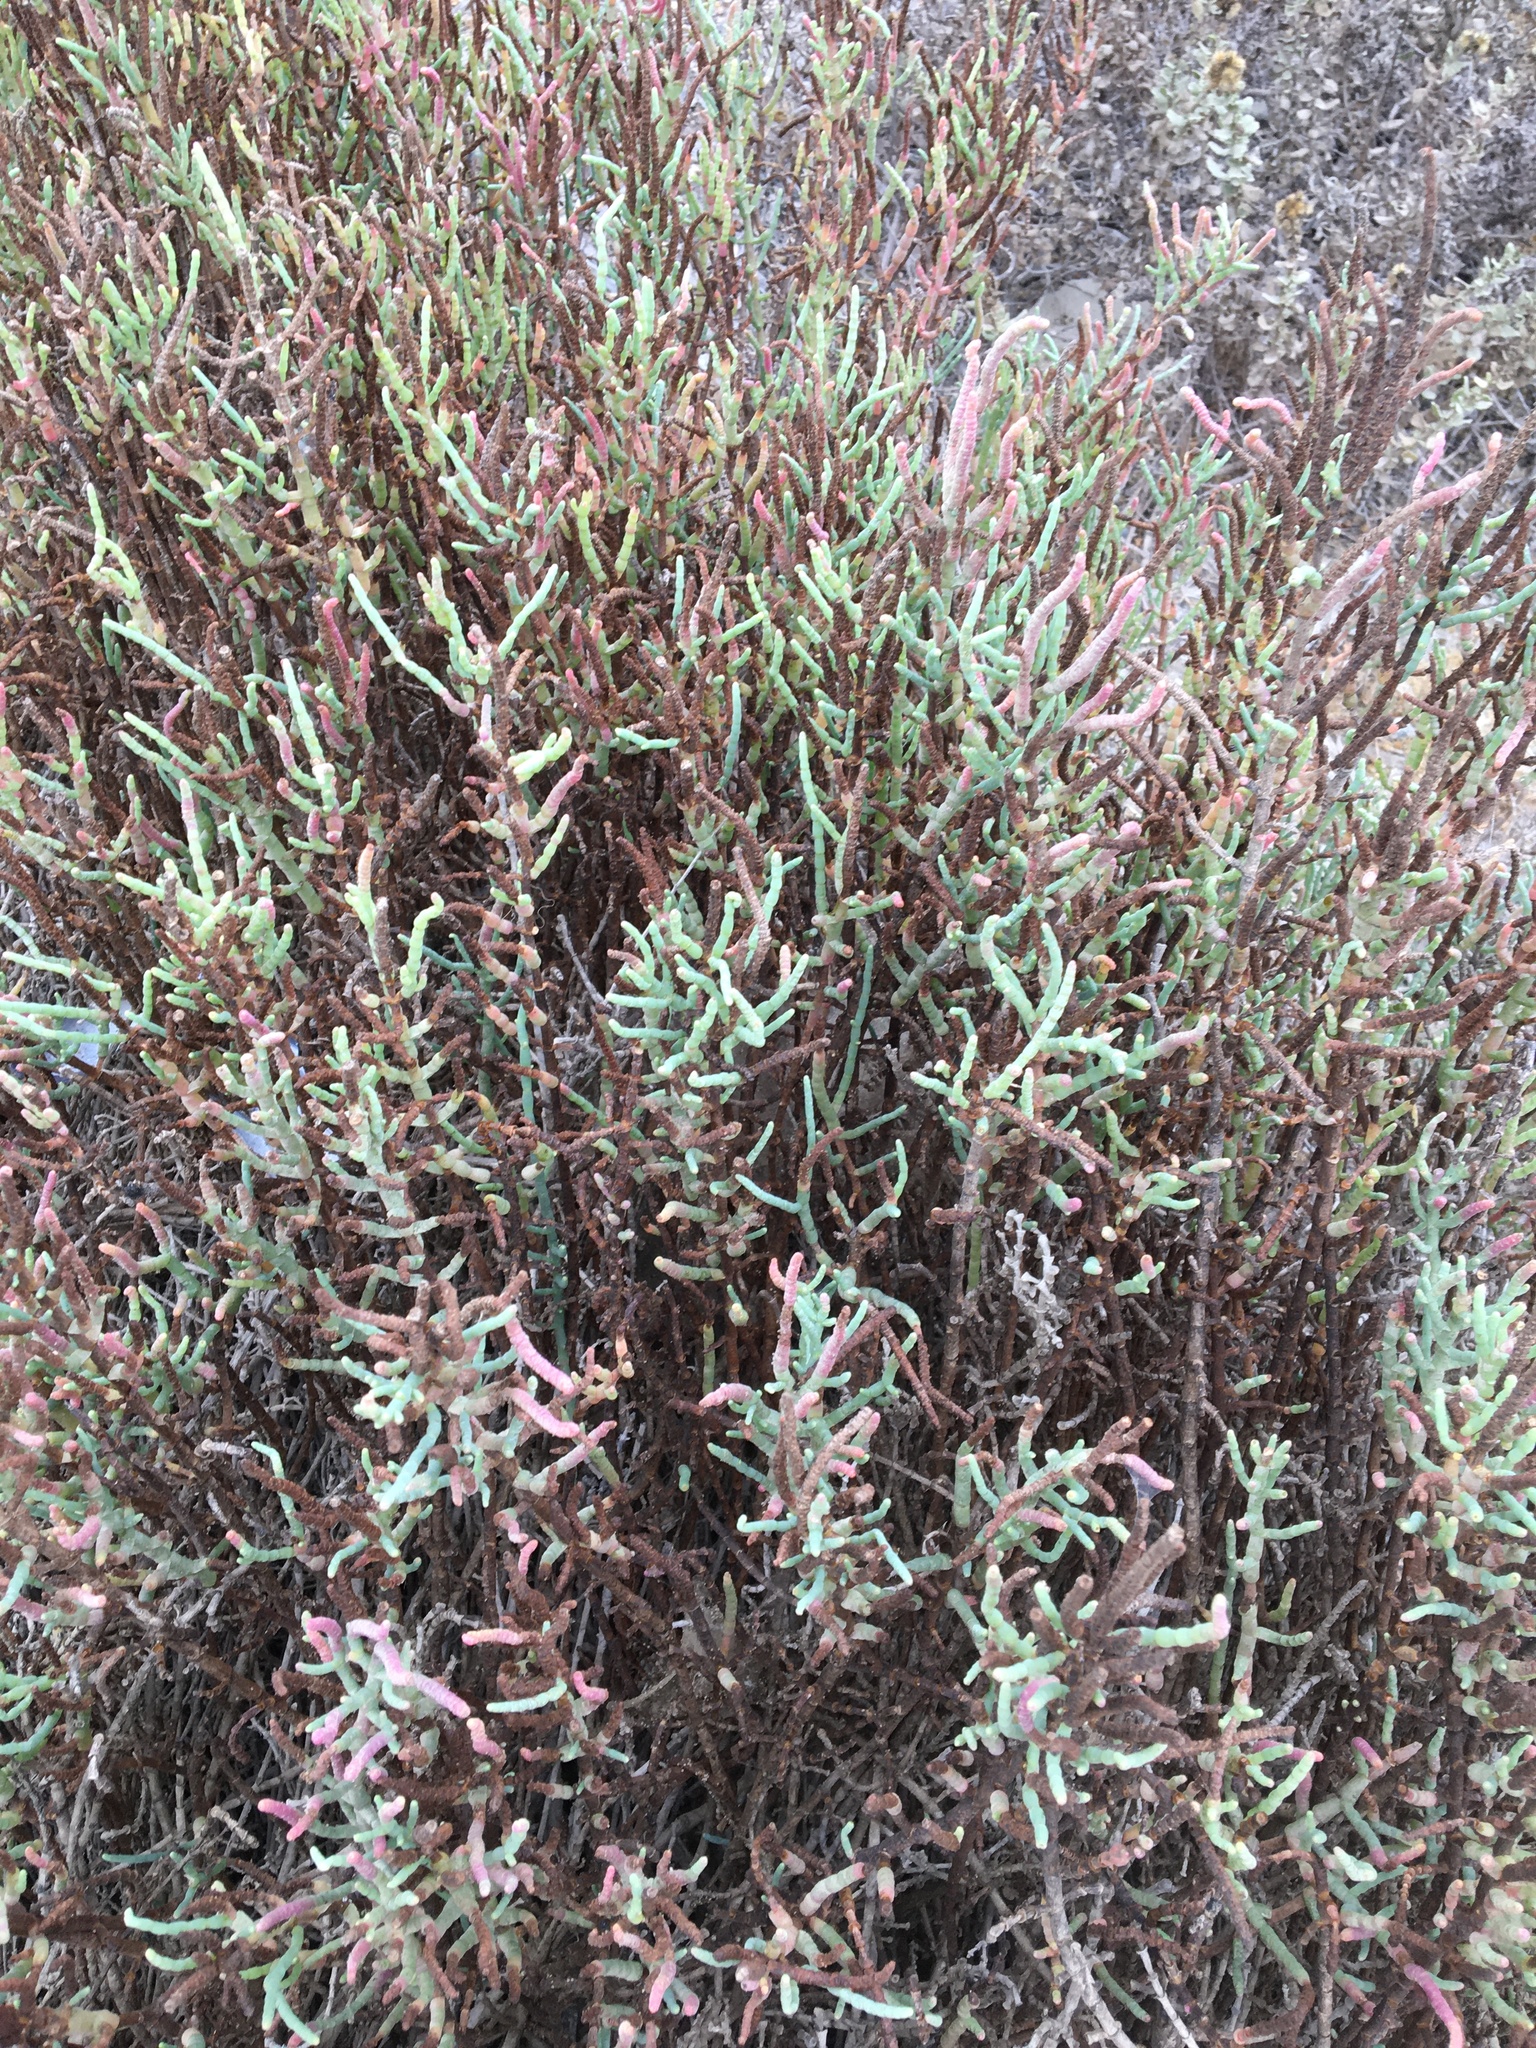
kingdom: Plantae
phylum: Tracheophyta
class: Magnoliopsida
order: Caryophyllales
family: Amaranthaceae
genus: Salicornia
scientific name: Salicornia pacifica
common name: Pacific glasswort
